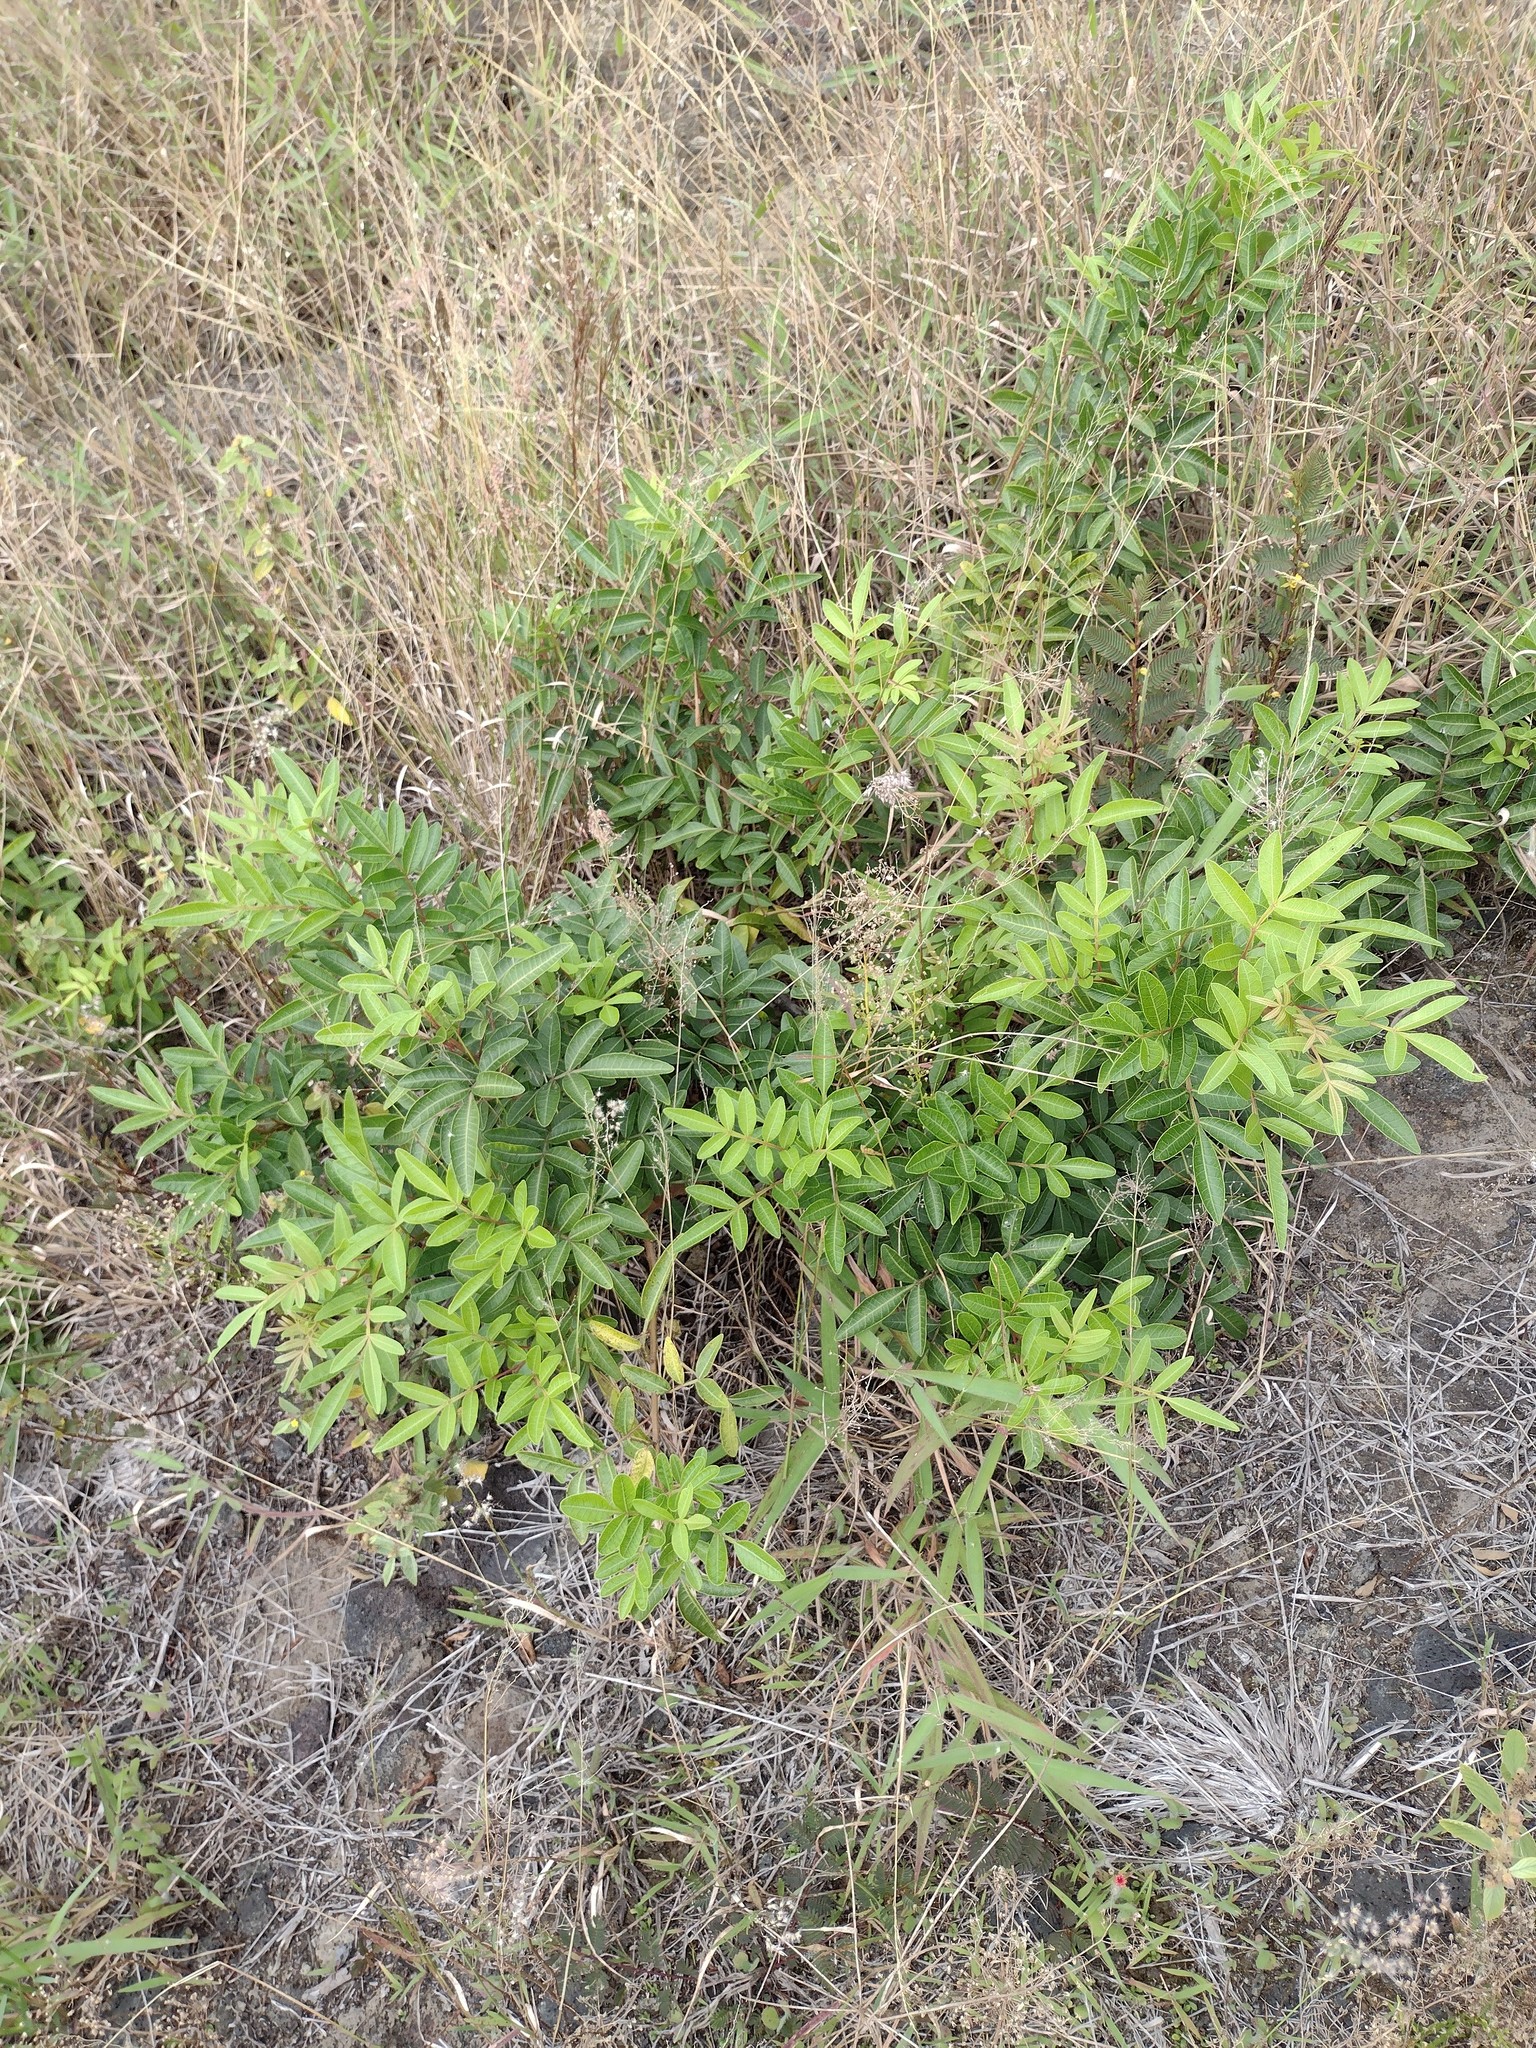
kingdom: Plantae
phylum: Tracheophyta
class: Magnoliopsida
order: Sapindales
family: Anacardiaceae
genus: Schinus
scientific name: Schinus terebinthifolia
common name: Brazilian peppertree
